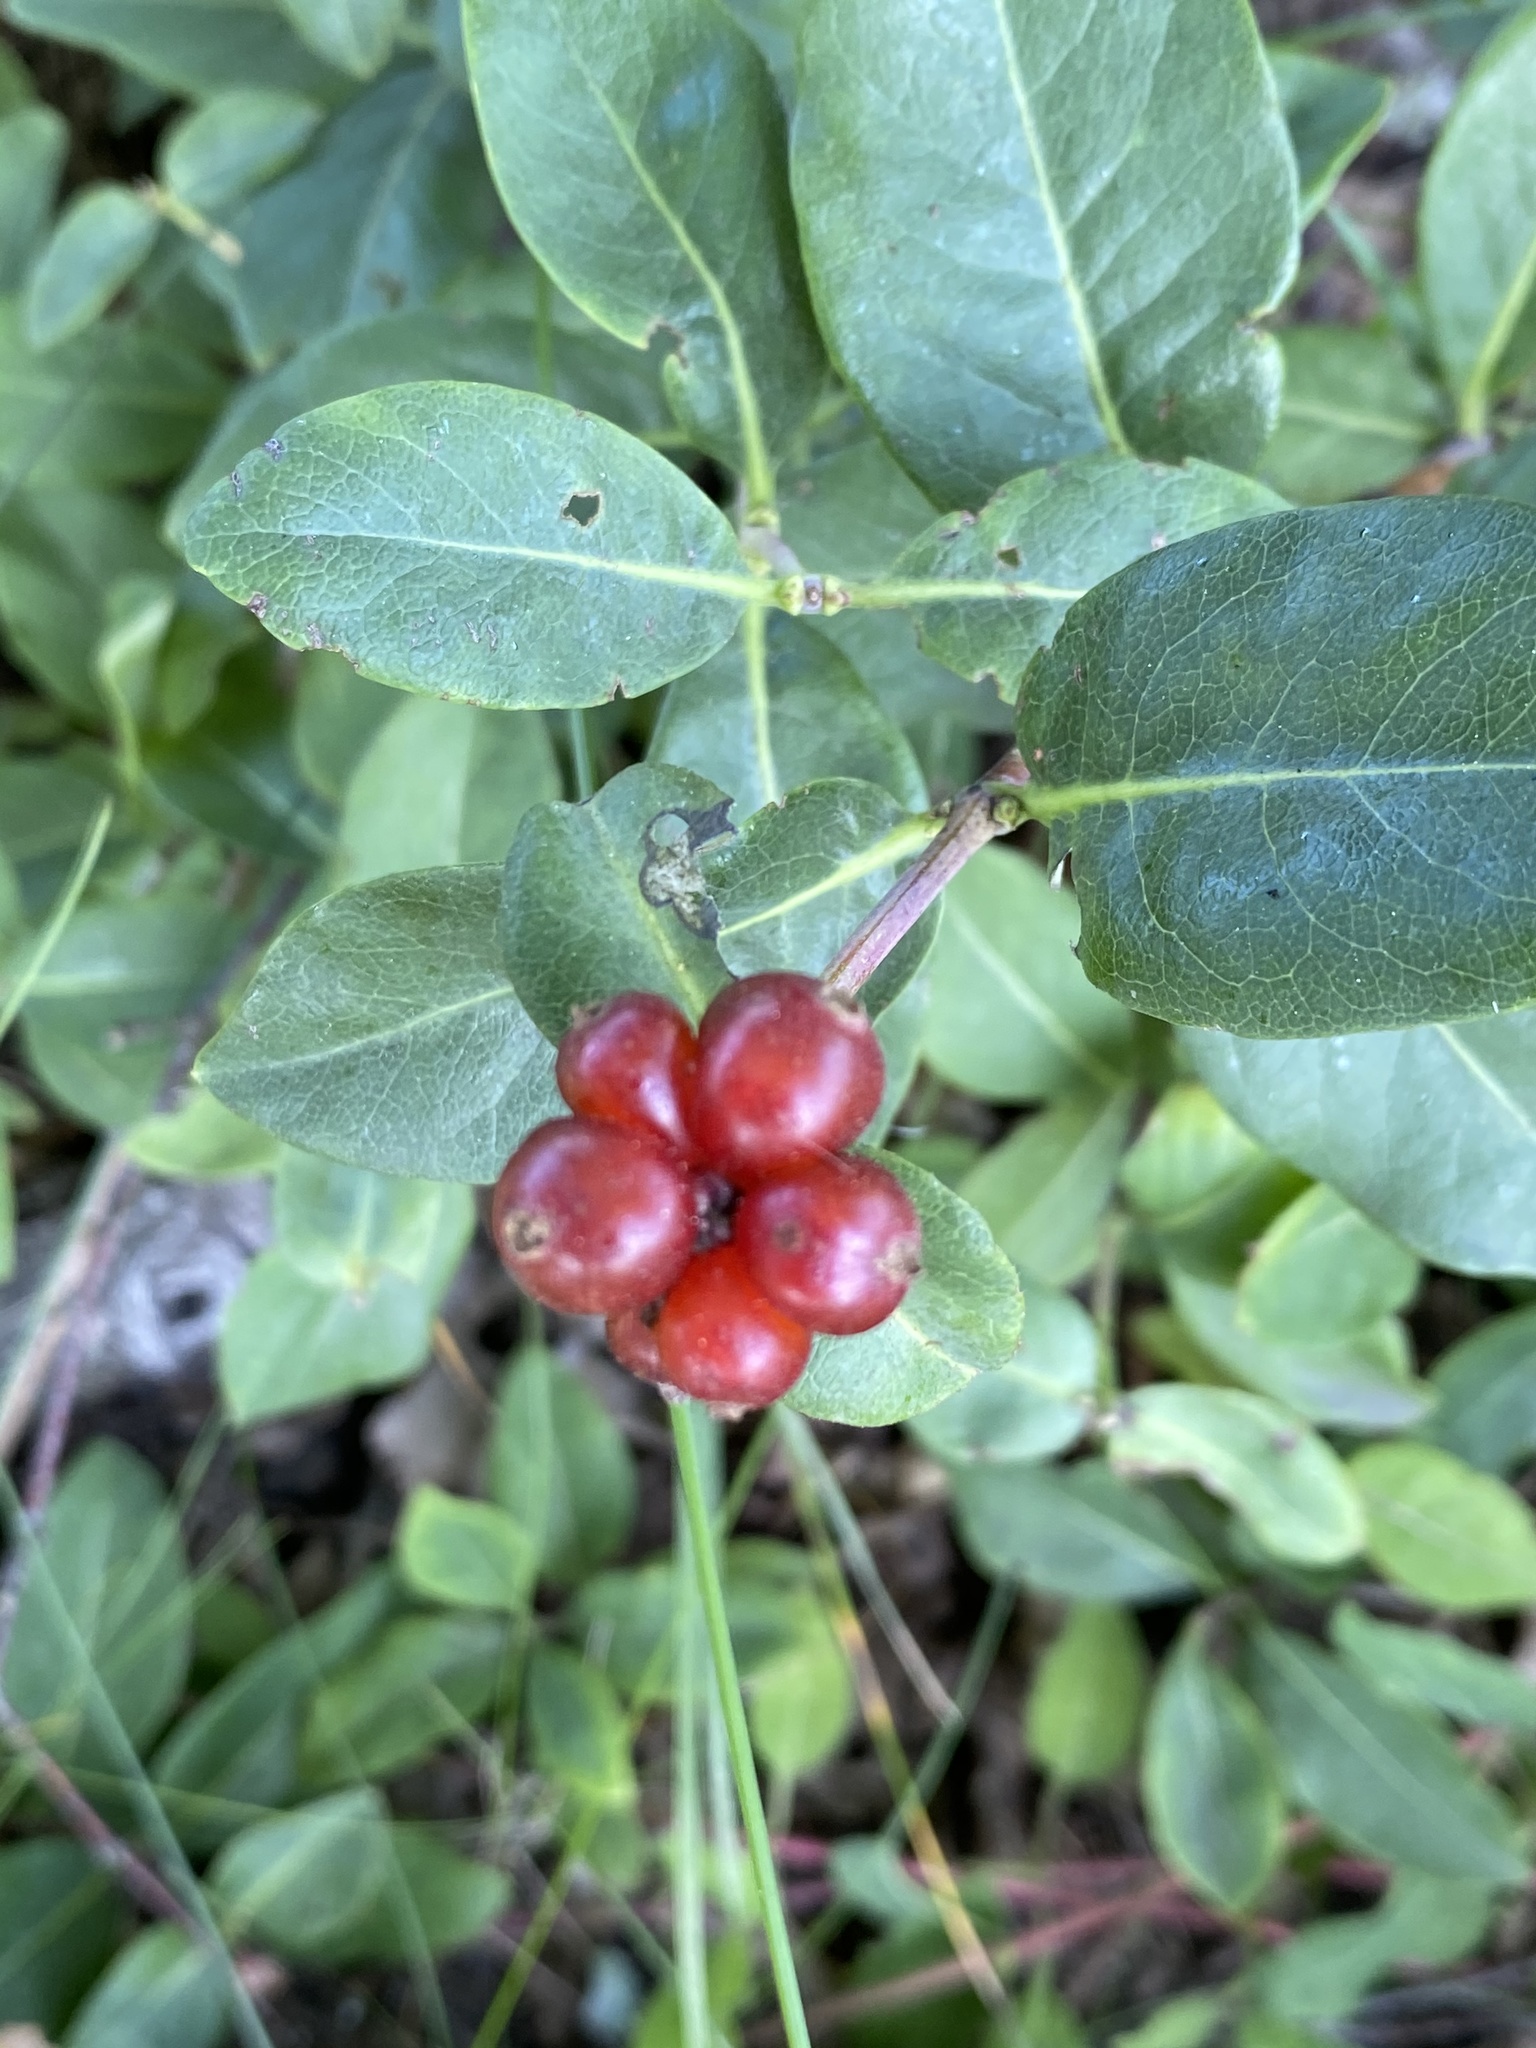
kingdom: Plantae
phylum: Tracheophyta
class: Magnoliopsida
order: Dipsacales
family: Caprifoliaceae
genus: Lonicera
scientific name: Lonicera periclymenum
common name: European honeysuckle
